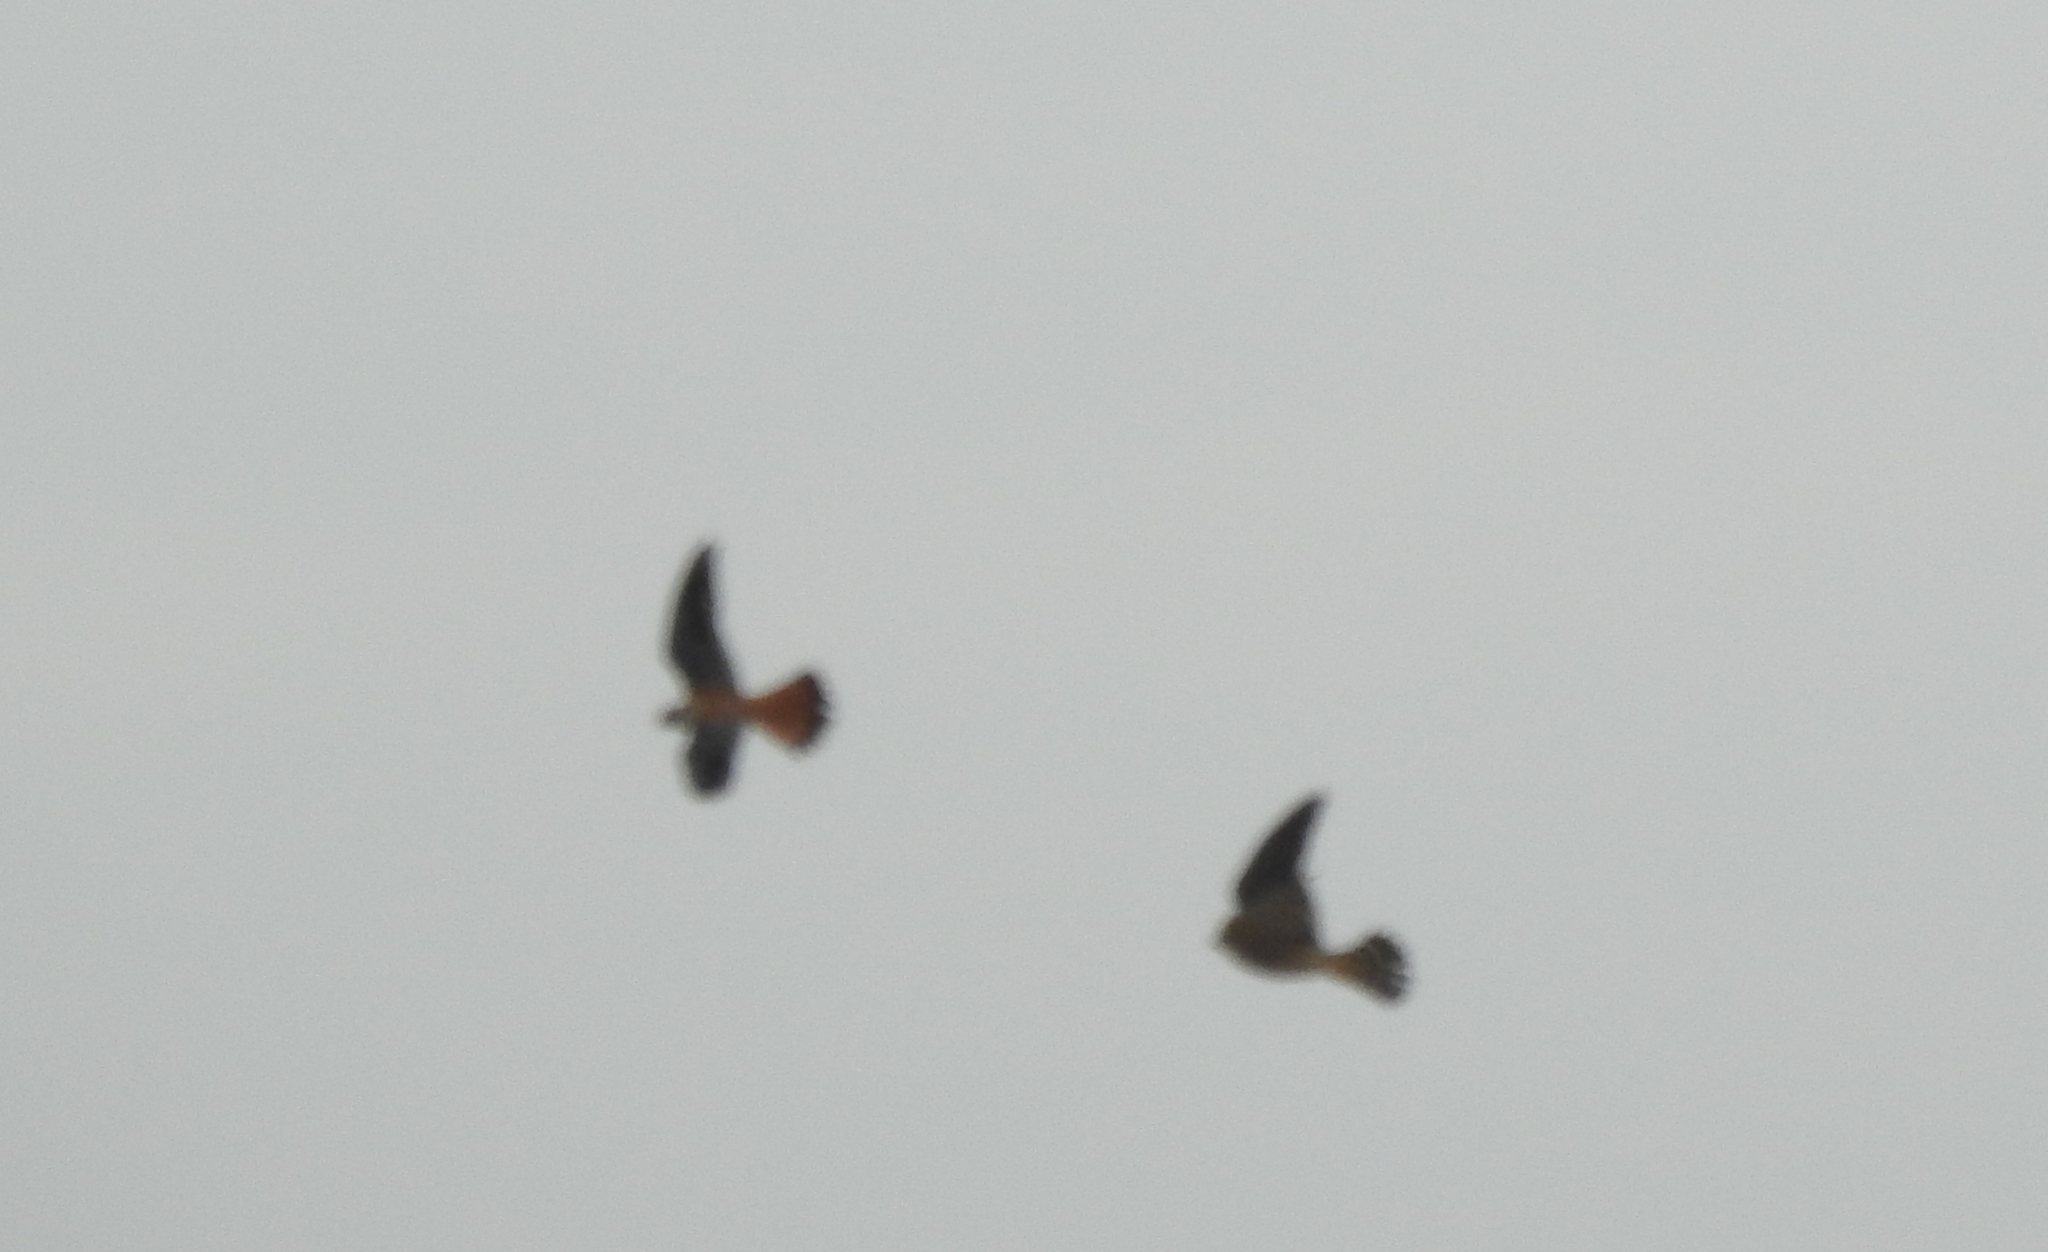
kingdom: Animalia
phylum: Chordata
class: Aves
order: Falconiformes
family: Falconidae
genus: Falco
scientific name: Falco sparverius
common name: American kestrel
